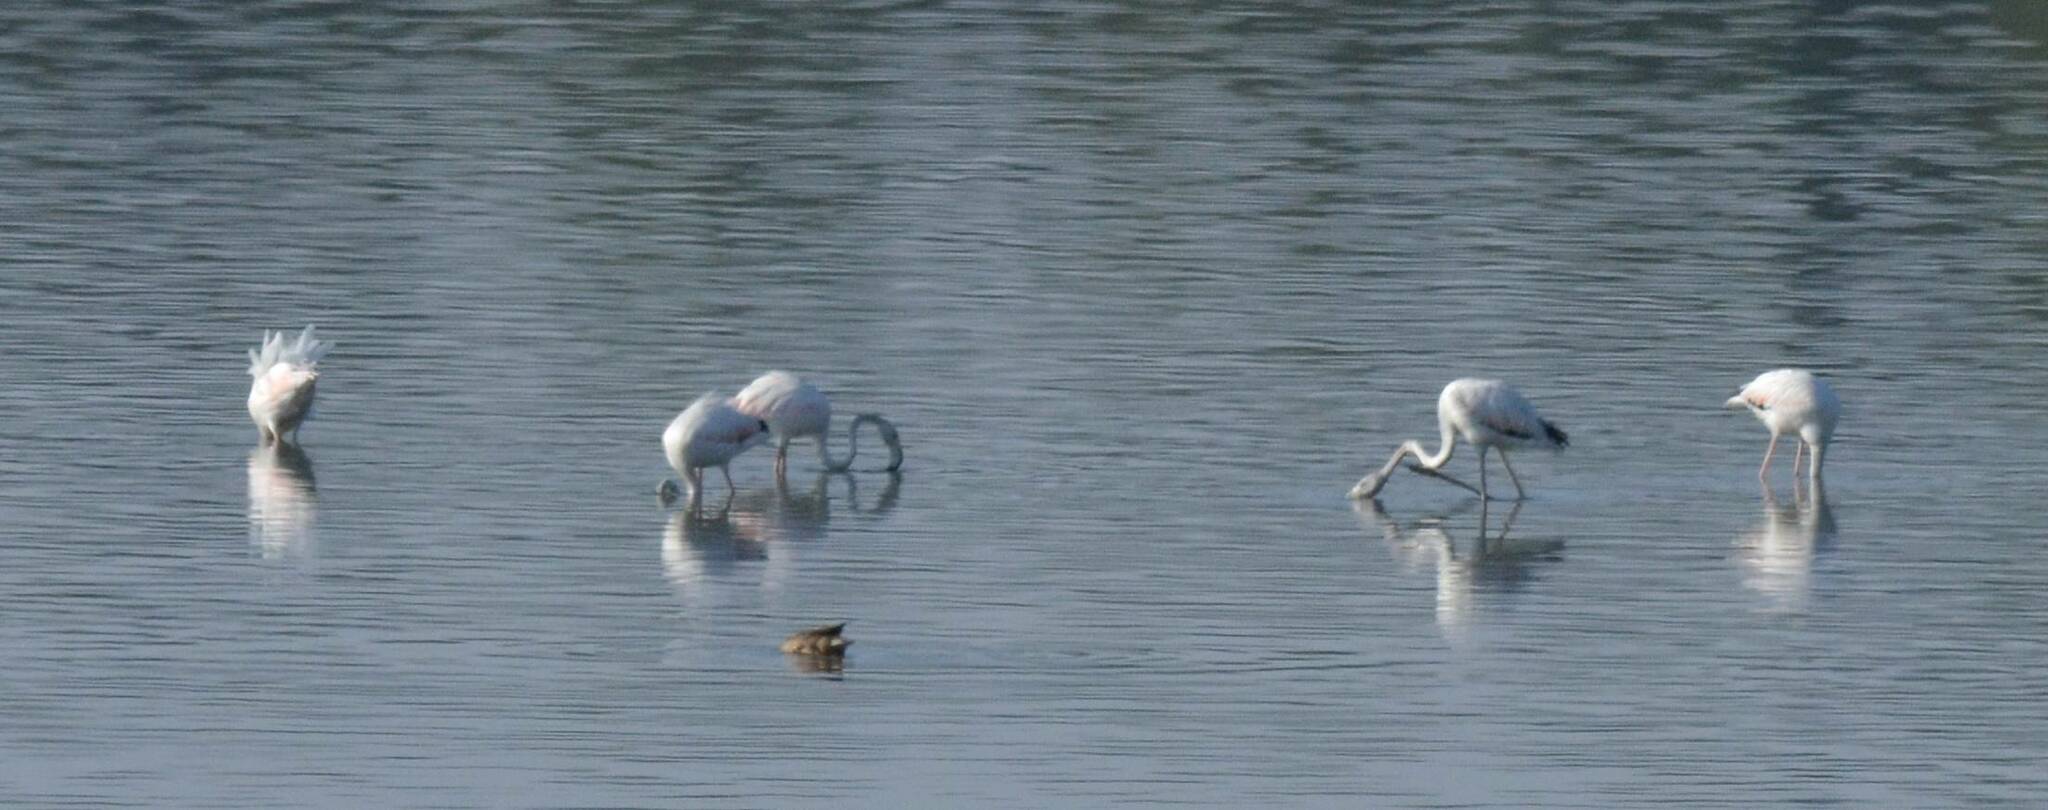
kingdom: Animalia
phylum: Chordata
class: Aves
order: Phoenicopteriformes
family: Phoenicopteridae
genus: Phoenicopterus
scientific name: Phoenicopterus roseus
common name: Greater flamingo
